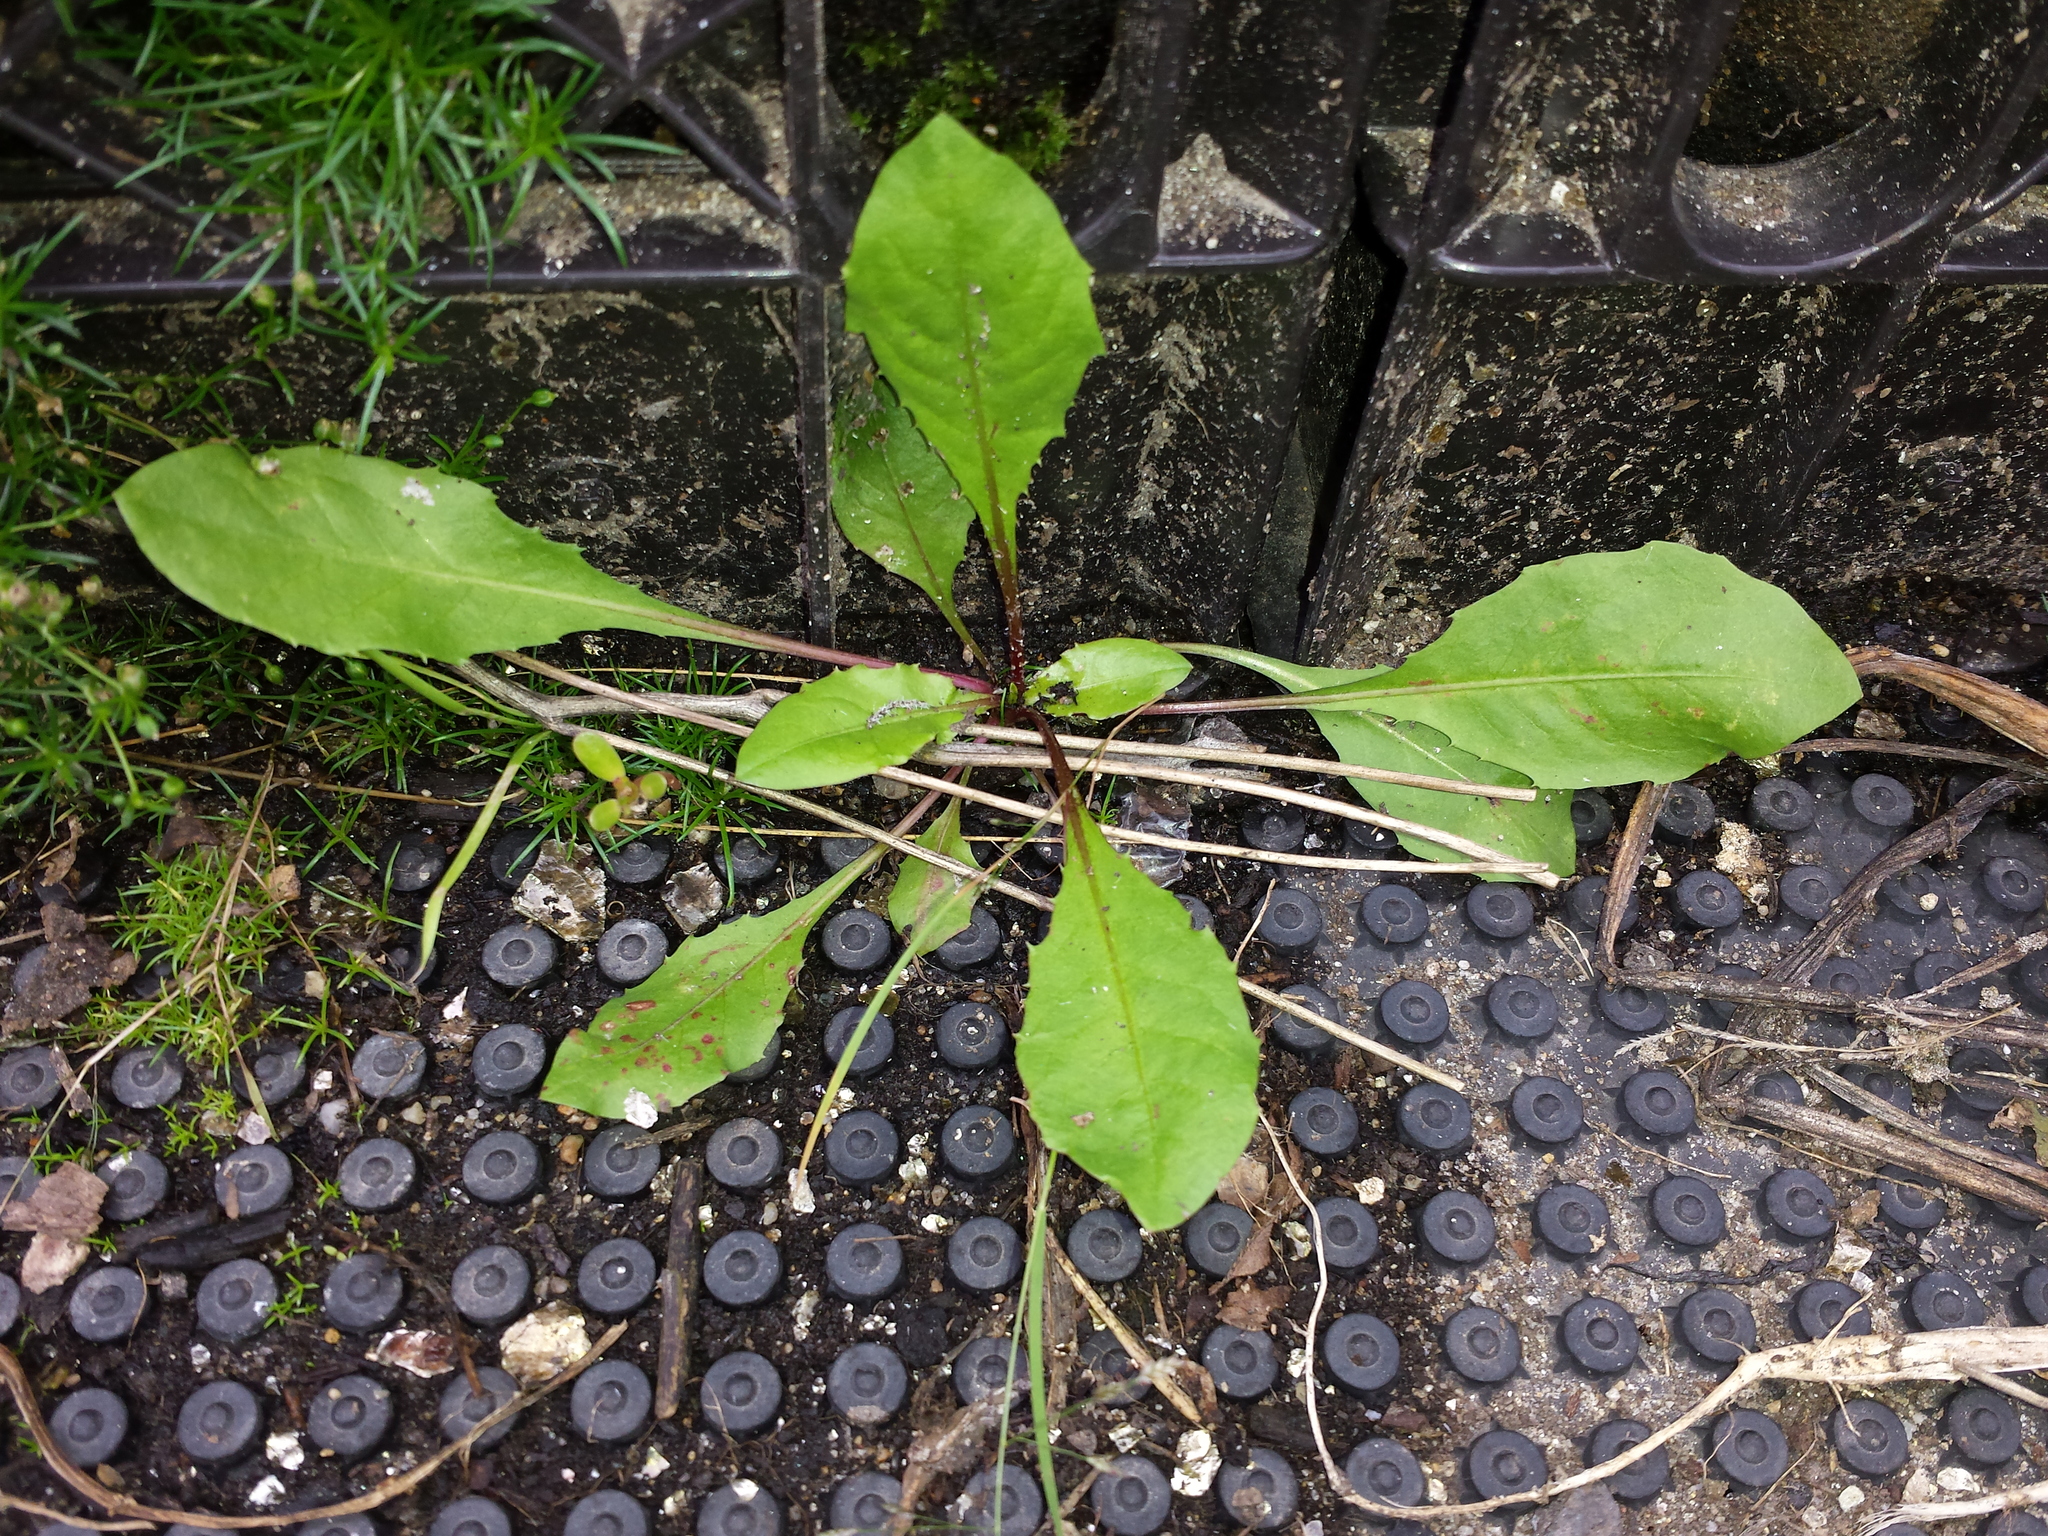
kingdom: Plantae
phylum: Tracheophyta
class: Magnoliopsida
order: Asterales
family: Asteraceae
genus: Taraxacum
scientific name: Taraxacum
